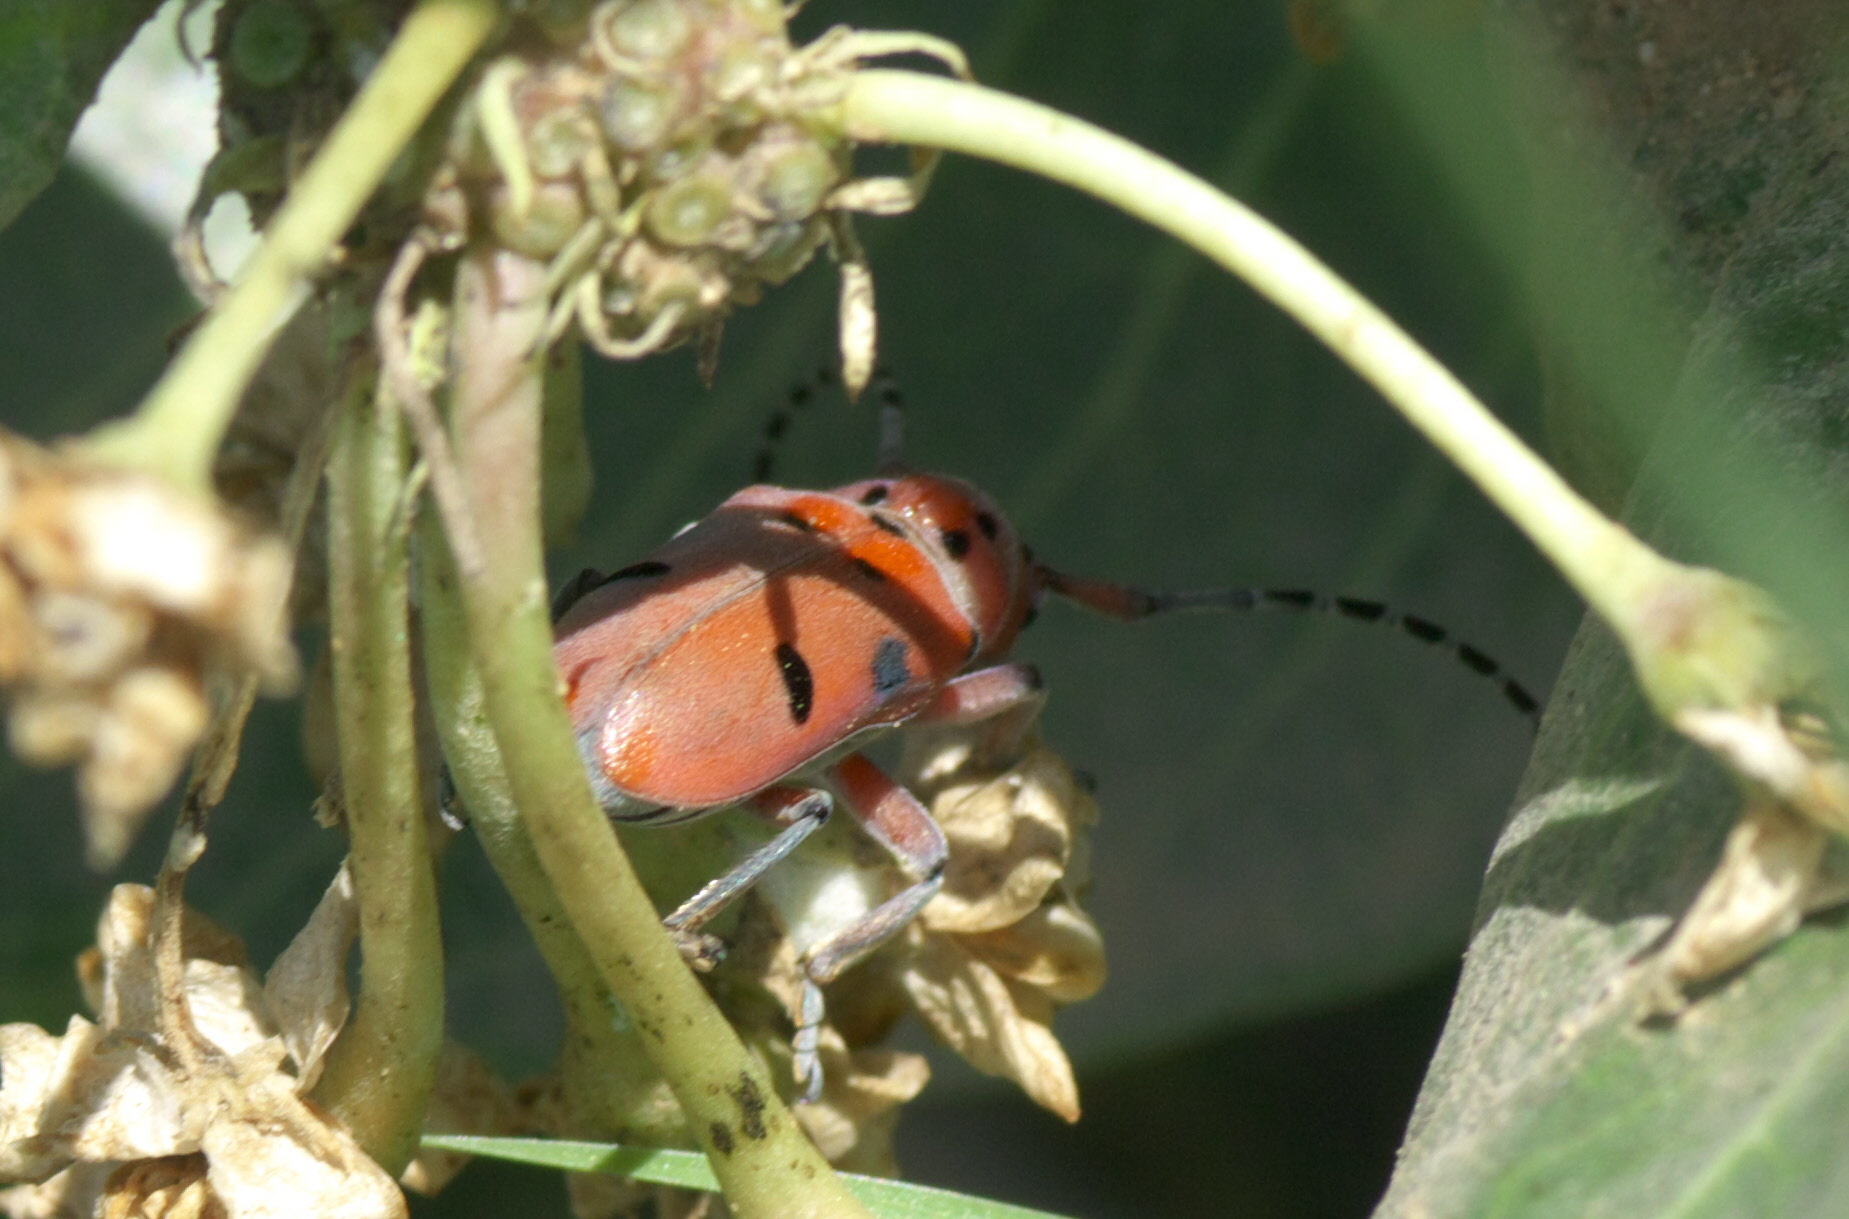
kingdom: Animalia
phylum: Arthropoda
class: Insecta
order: Coleoptera
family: Cerambycidae
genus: Tetraopes
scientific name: Tetraopes femoratus
